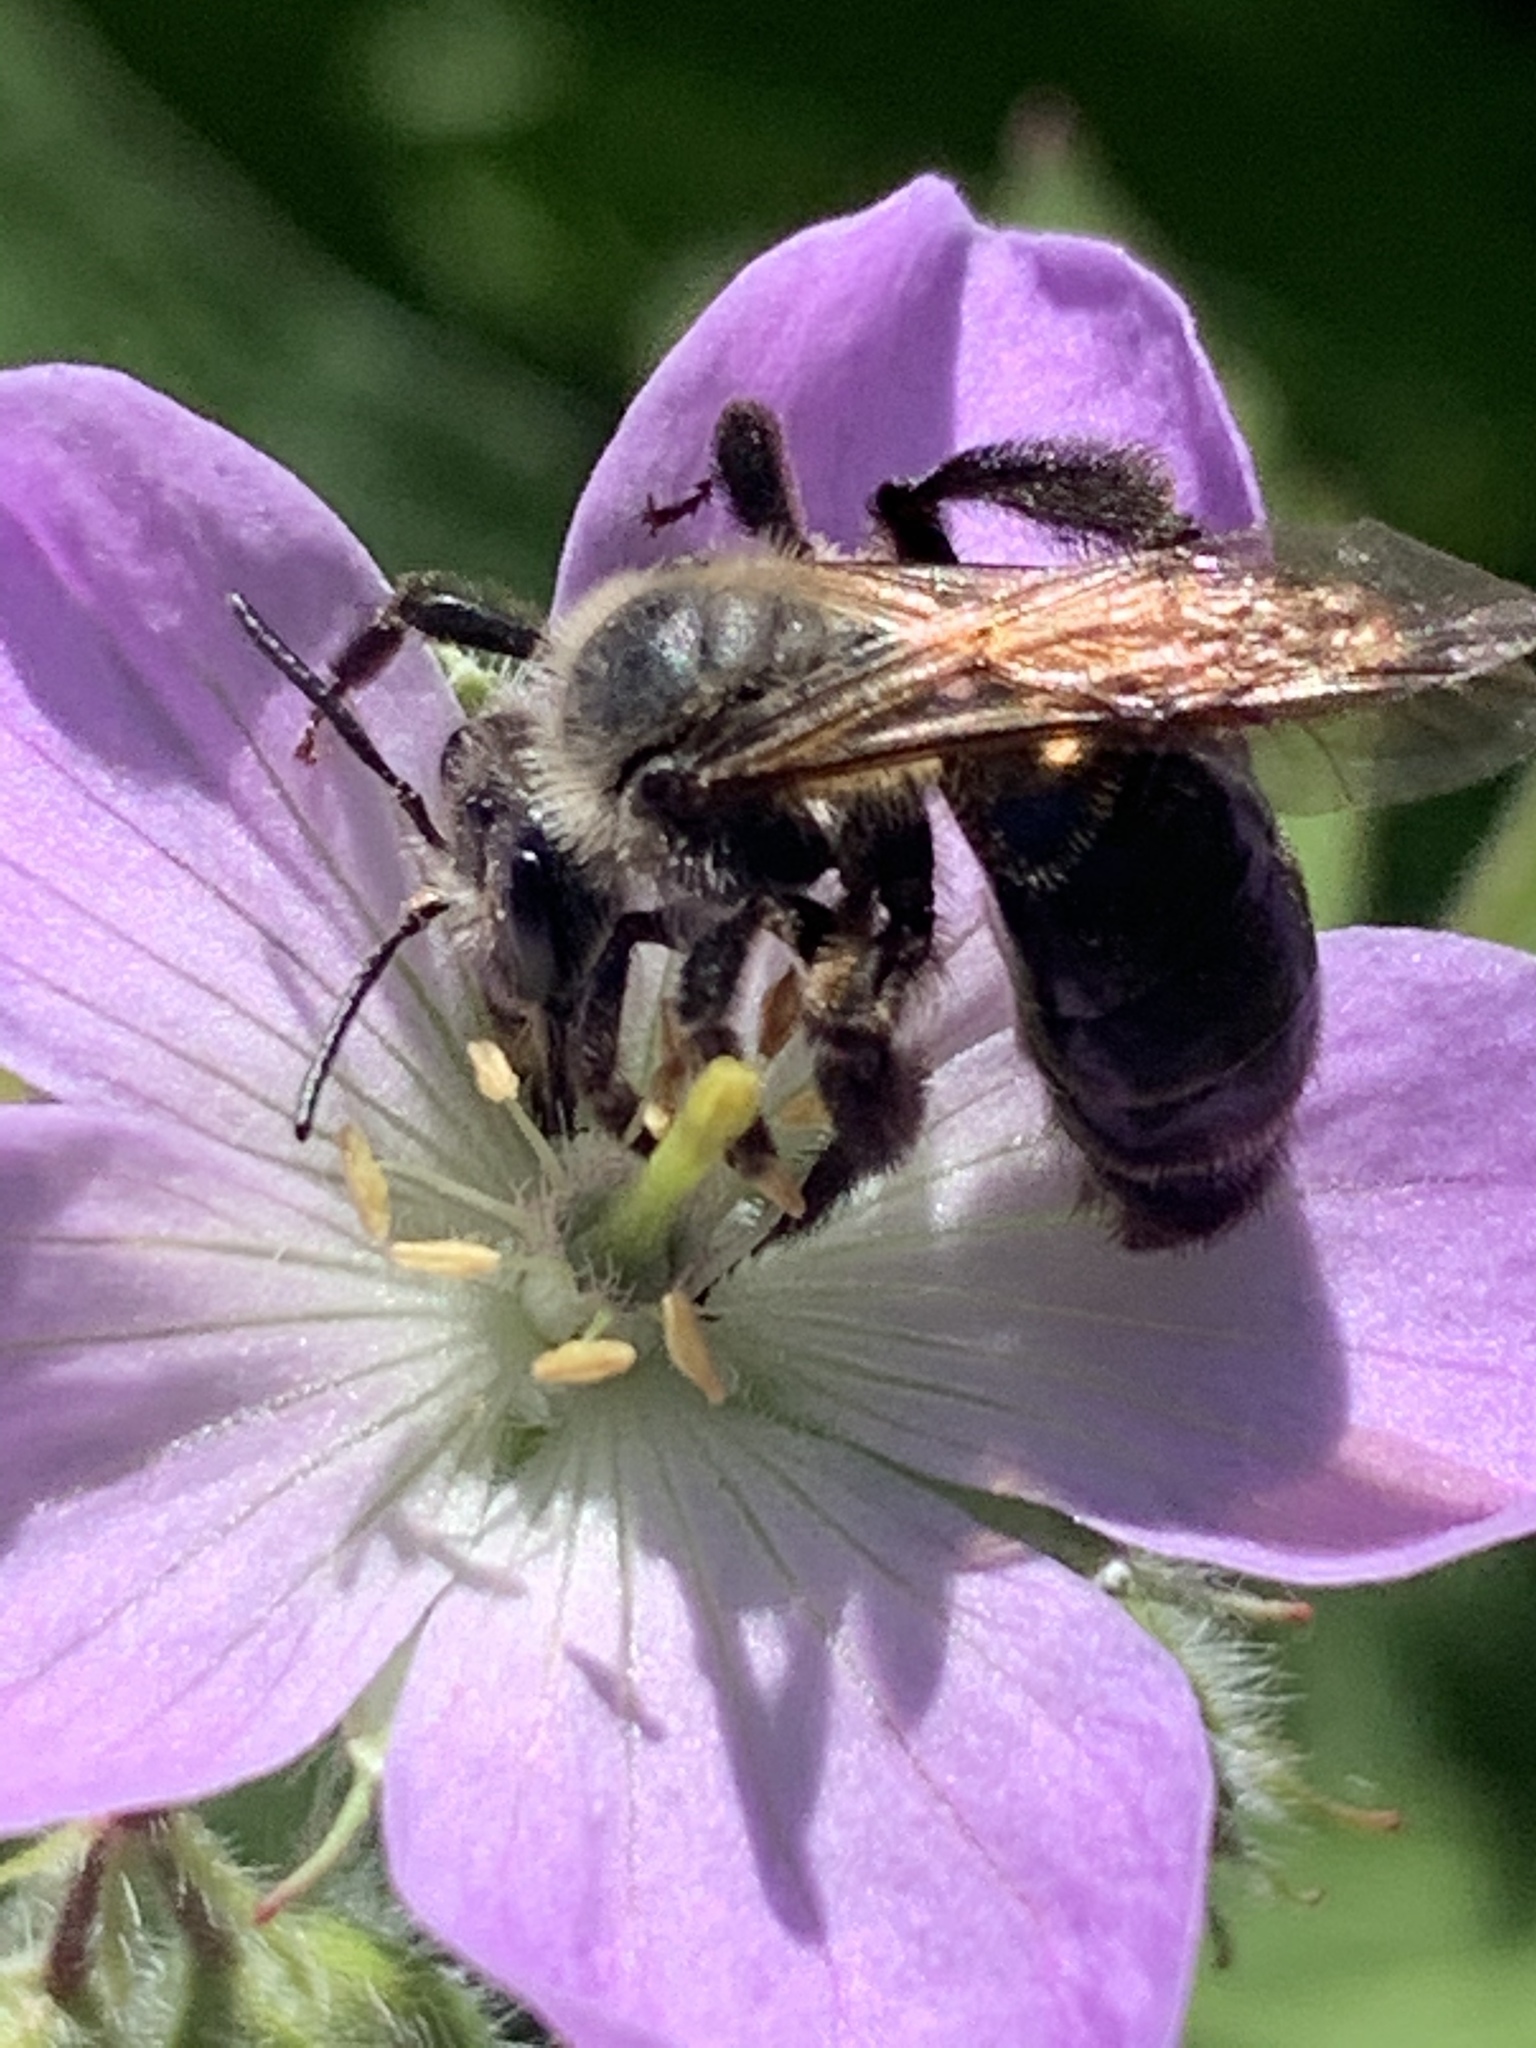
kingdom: Animalia
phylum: Arthropoda
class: Insecta
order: Hymenoptera
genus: Melandrena
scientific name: Melandrena
